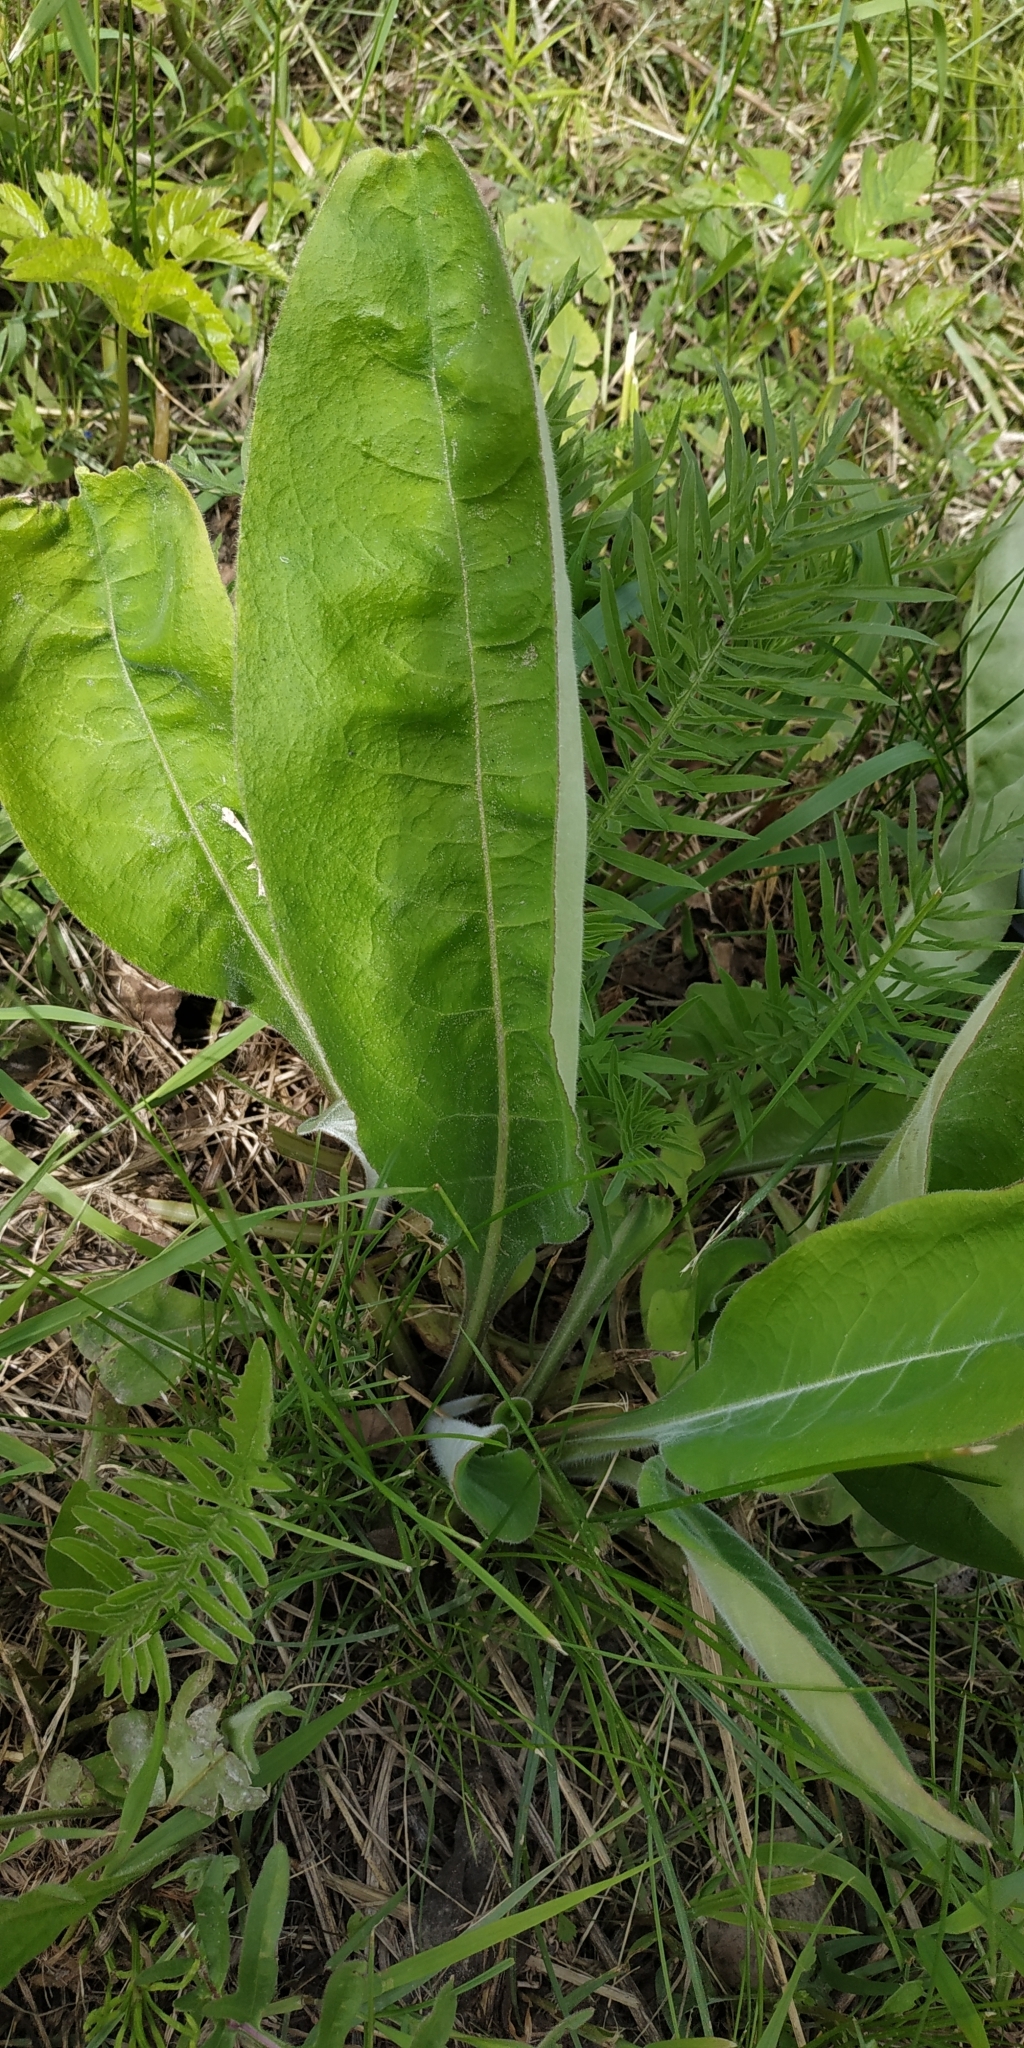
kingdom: Plantae
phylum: Tracheophyta
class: Magnoliopsida
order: Boraginales
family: Boraginaceae
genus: Pulmonaria
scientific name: Pulmonaria mollis
